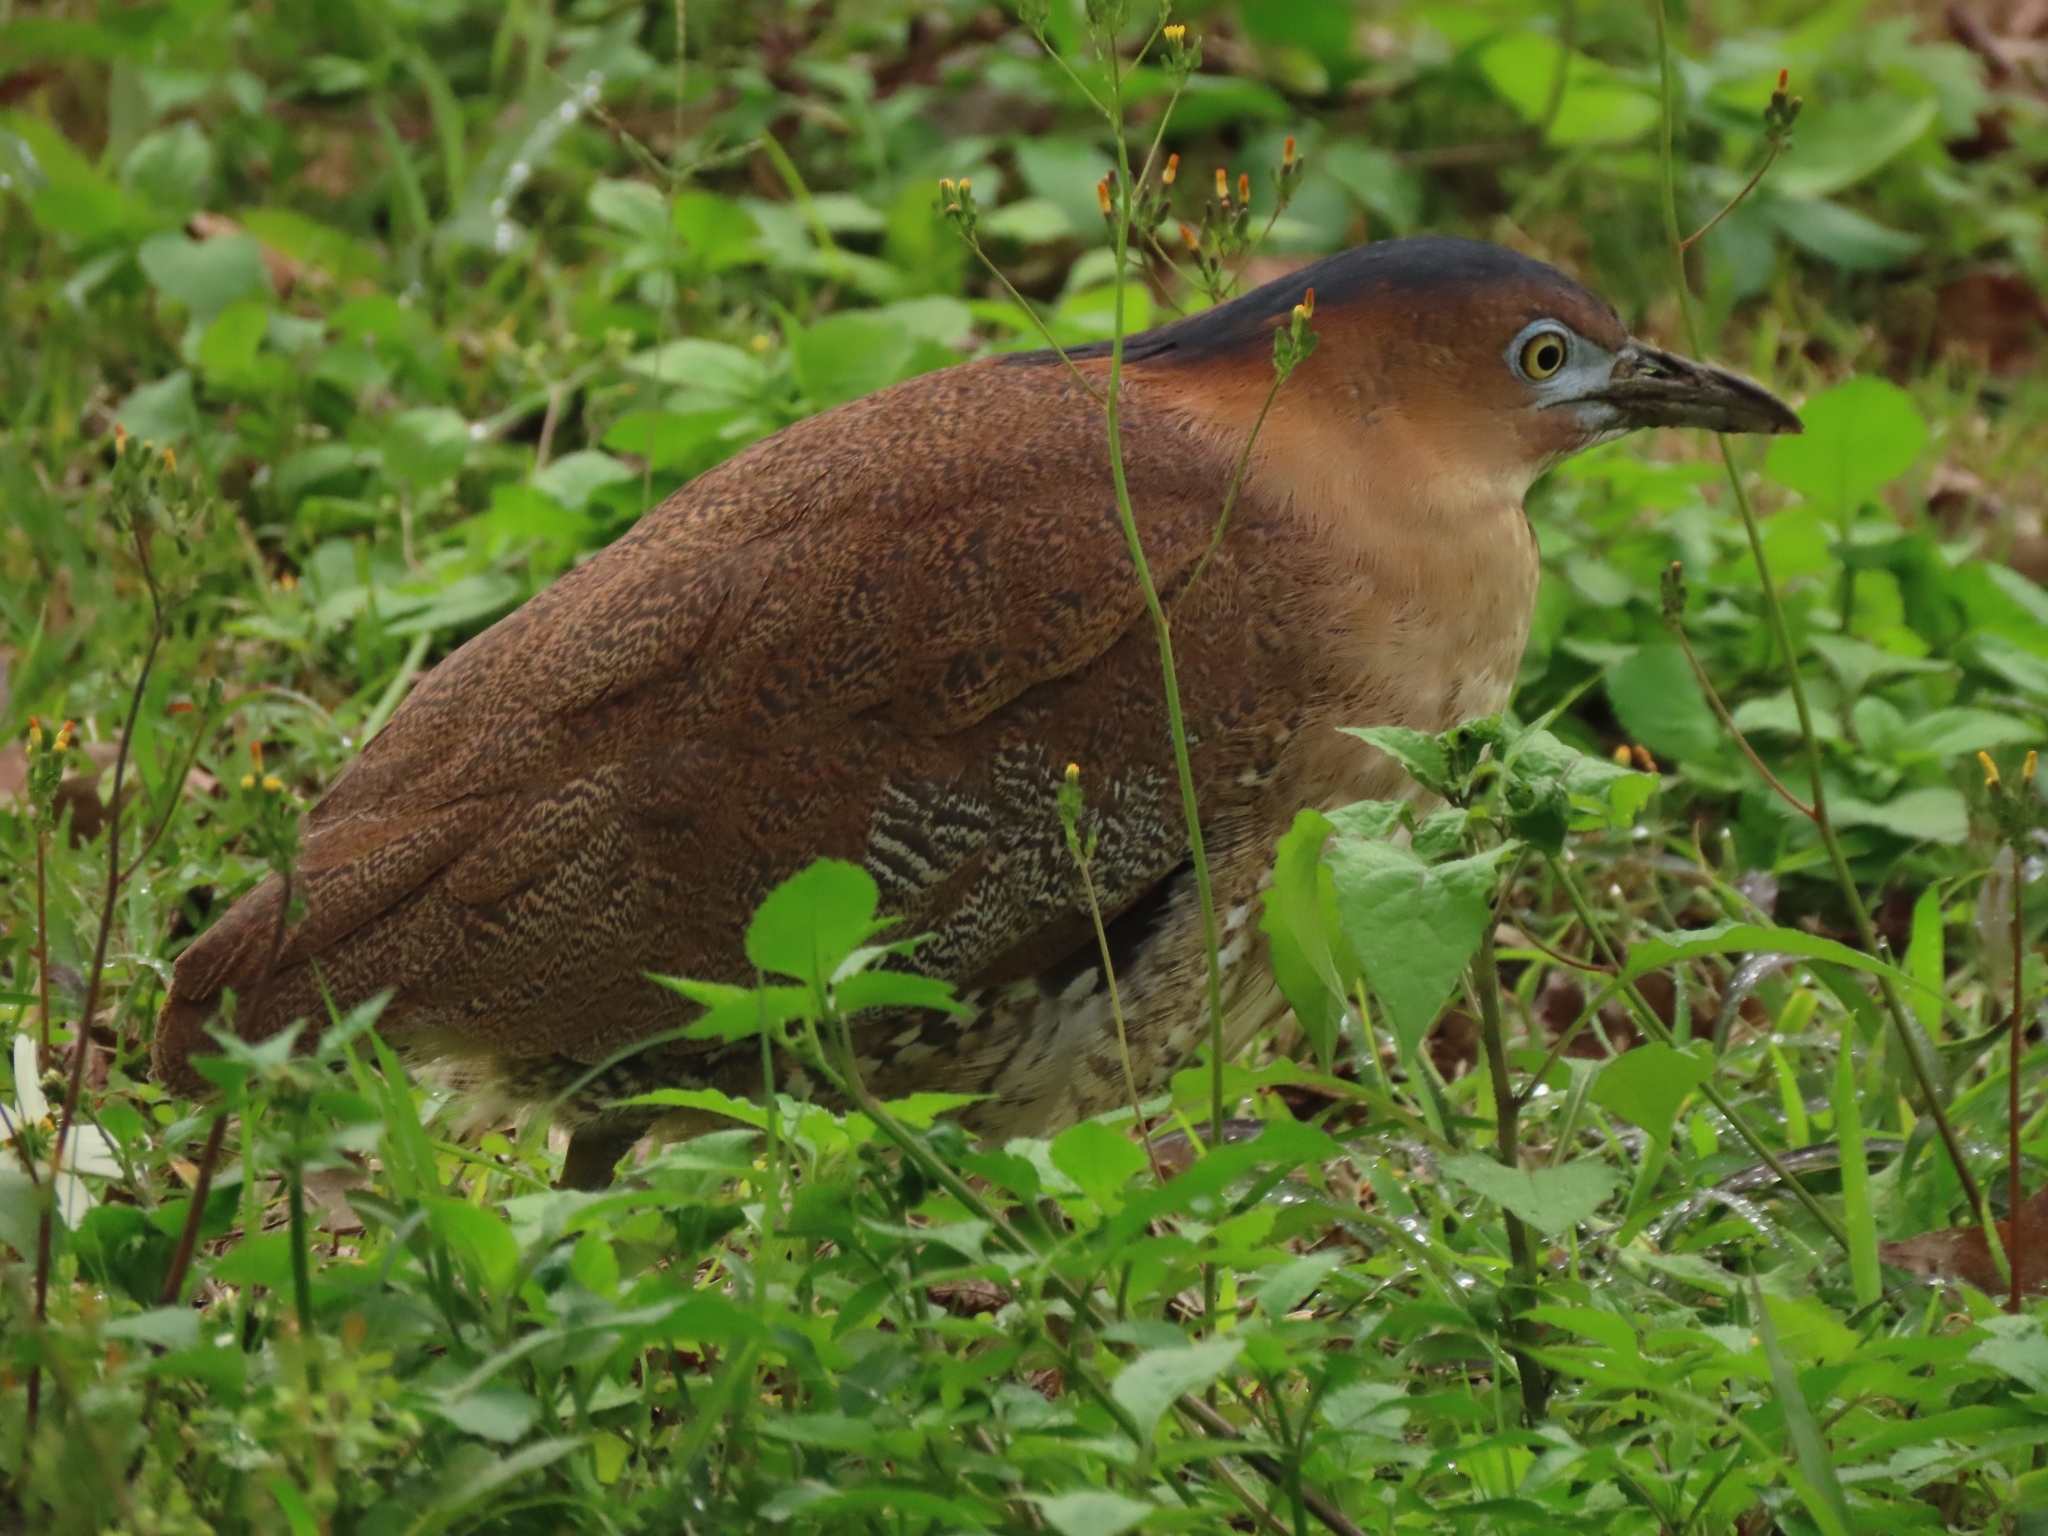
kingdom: Animalia
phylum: Chordata
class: Aves
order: Pelecaniformes
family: Ardeidae
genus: Gorsachius
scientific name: Gorsachius melanolophus
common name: Malayan night heron
